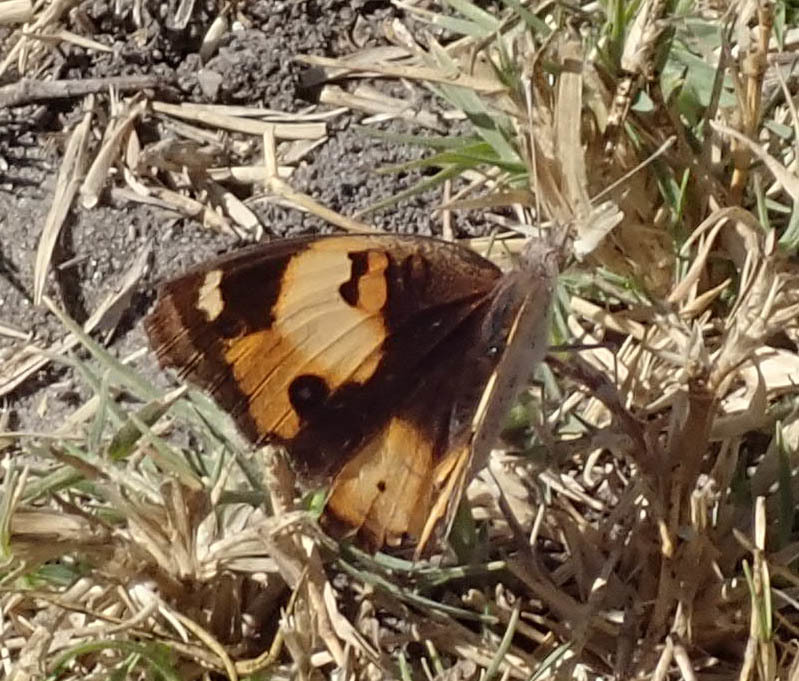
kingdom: Animalia
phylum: Arthropoda
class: Insecta
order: Lepidoptera
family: Nymphalidae
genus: Junonia
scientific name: Junonia hierta
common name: Yellow pansy
